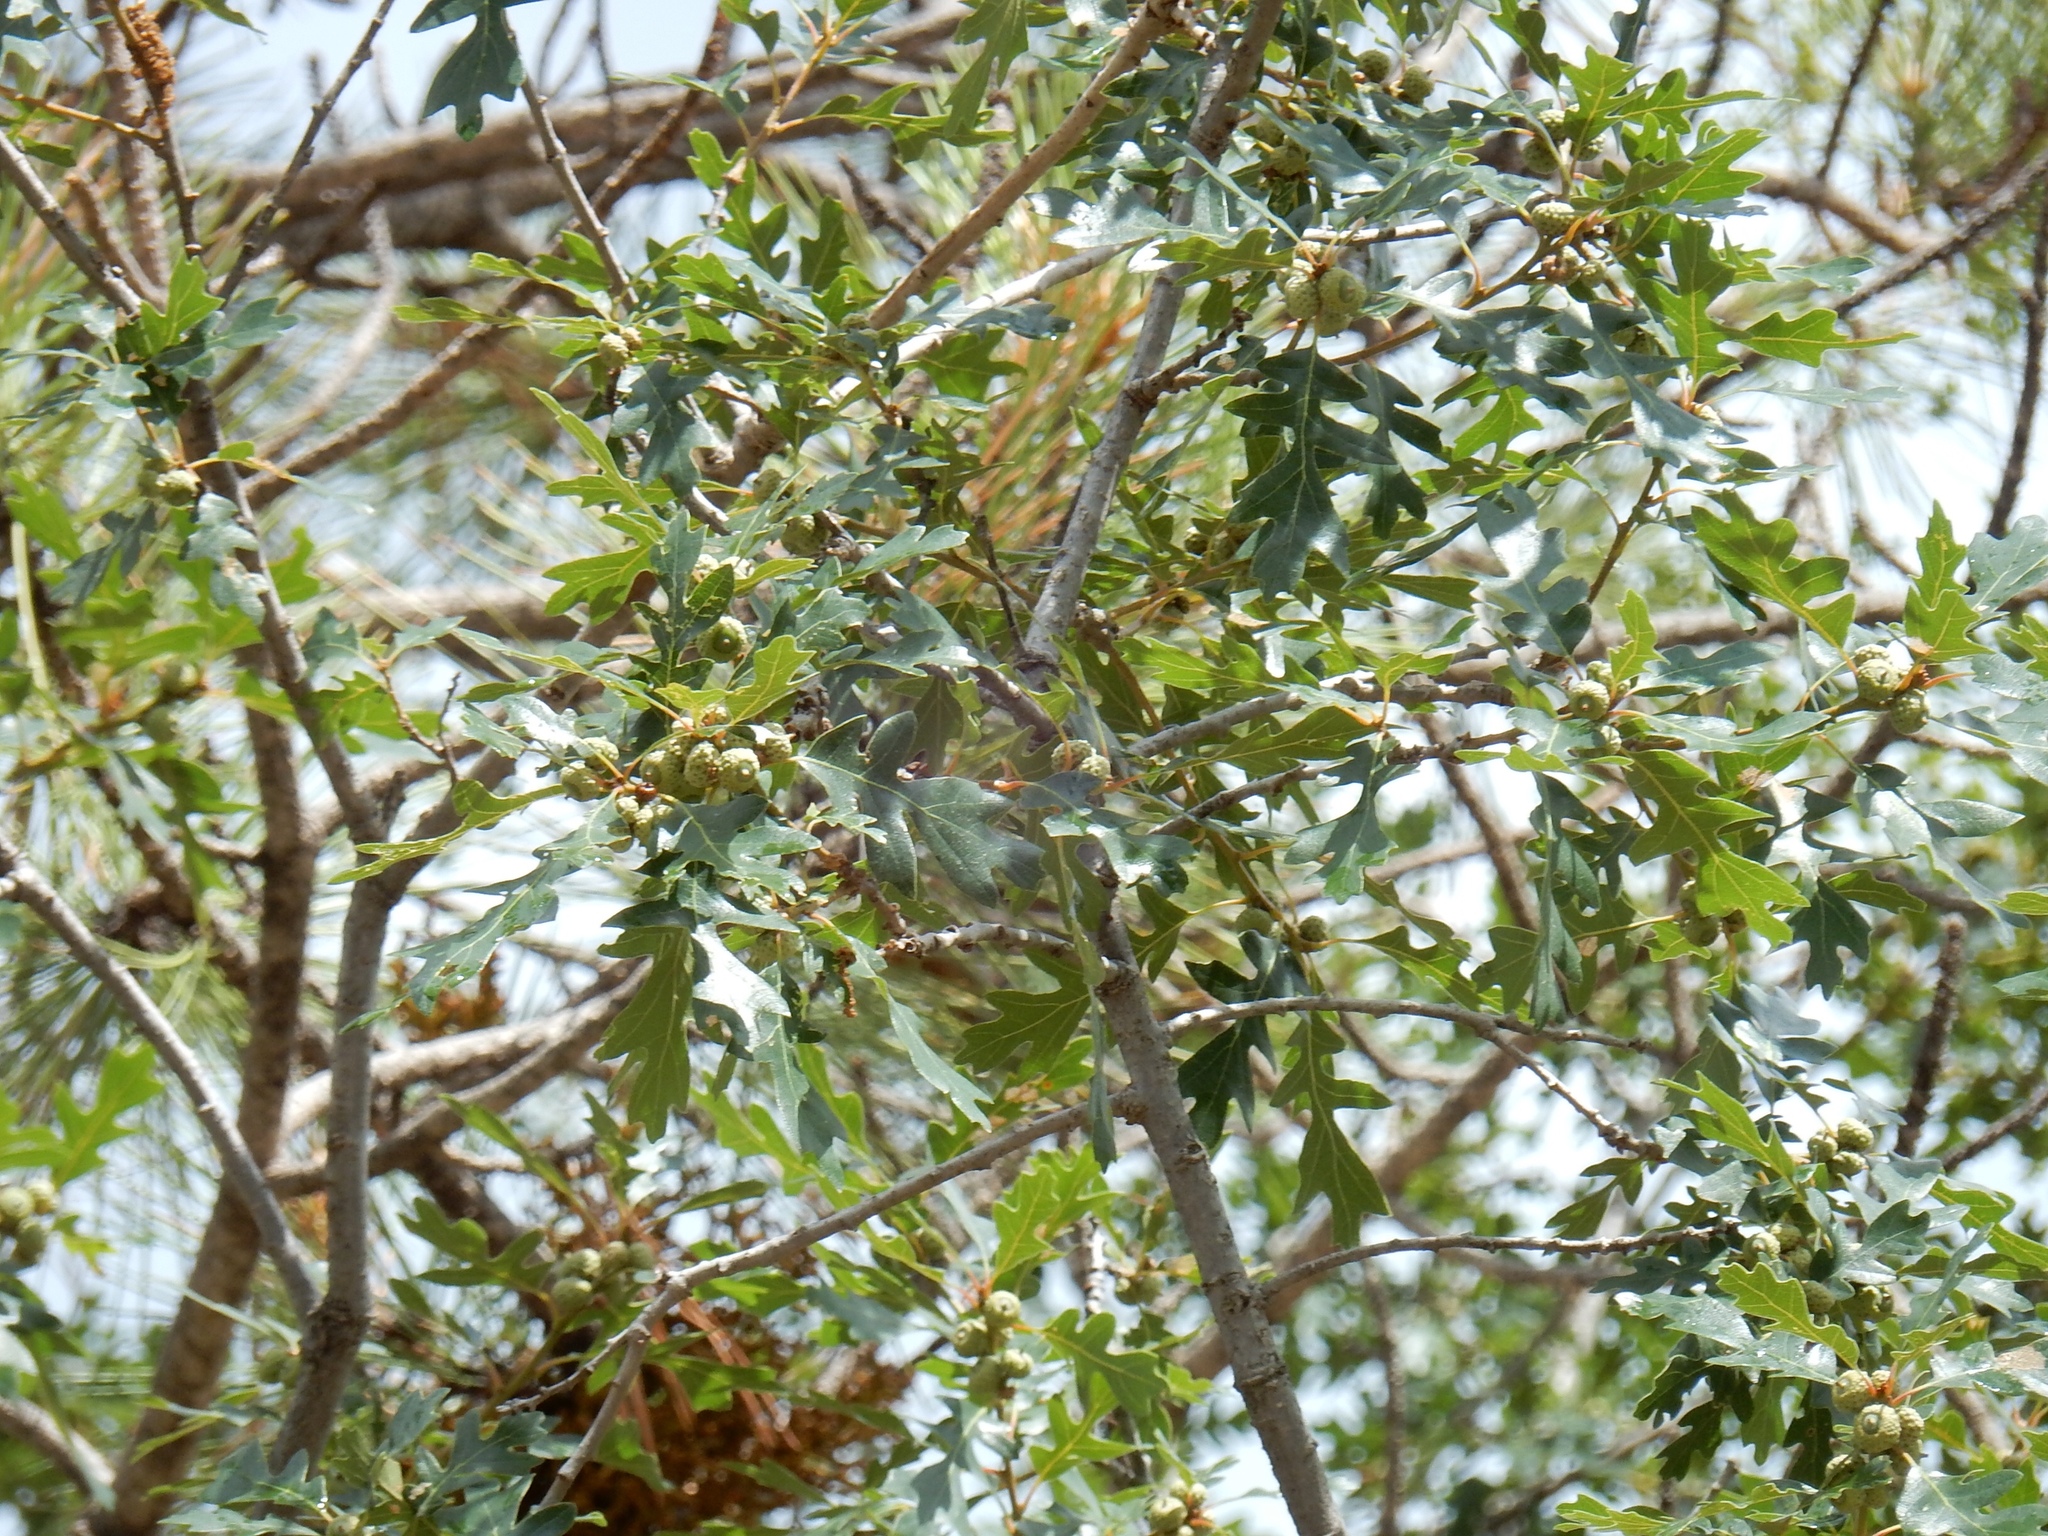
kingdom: Plantae
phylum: Tracheophyta
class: Magnoliopsida
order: Fagales
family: Fagaceae
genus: Quercus
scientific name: Quercus gambelii
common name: Gambel oak
